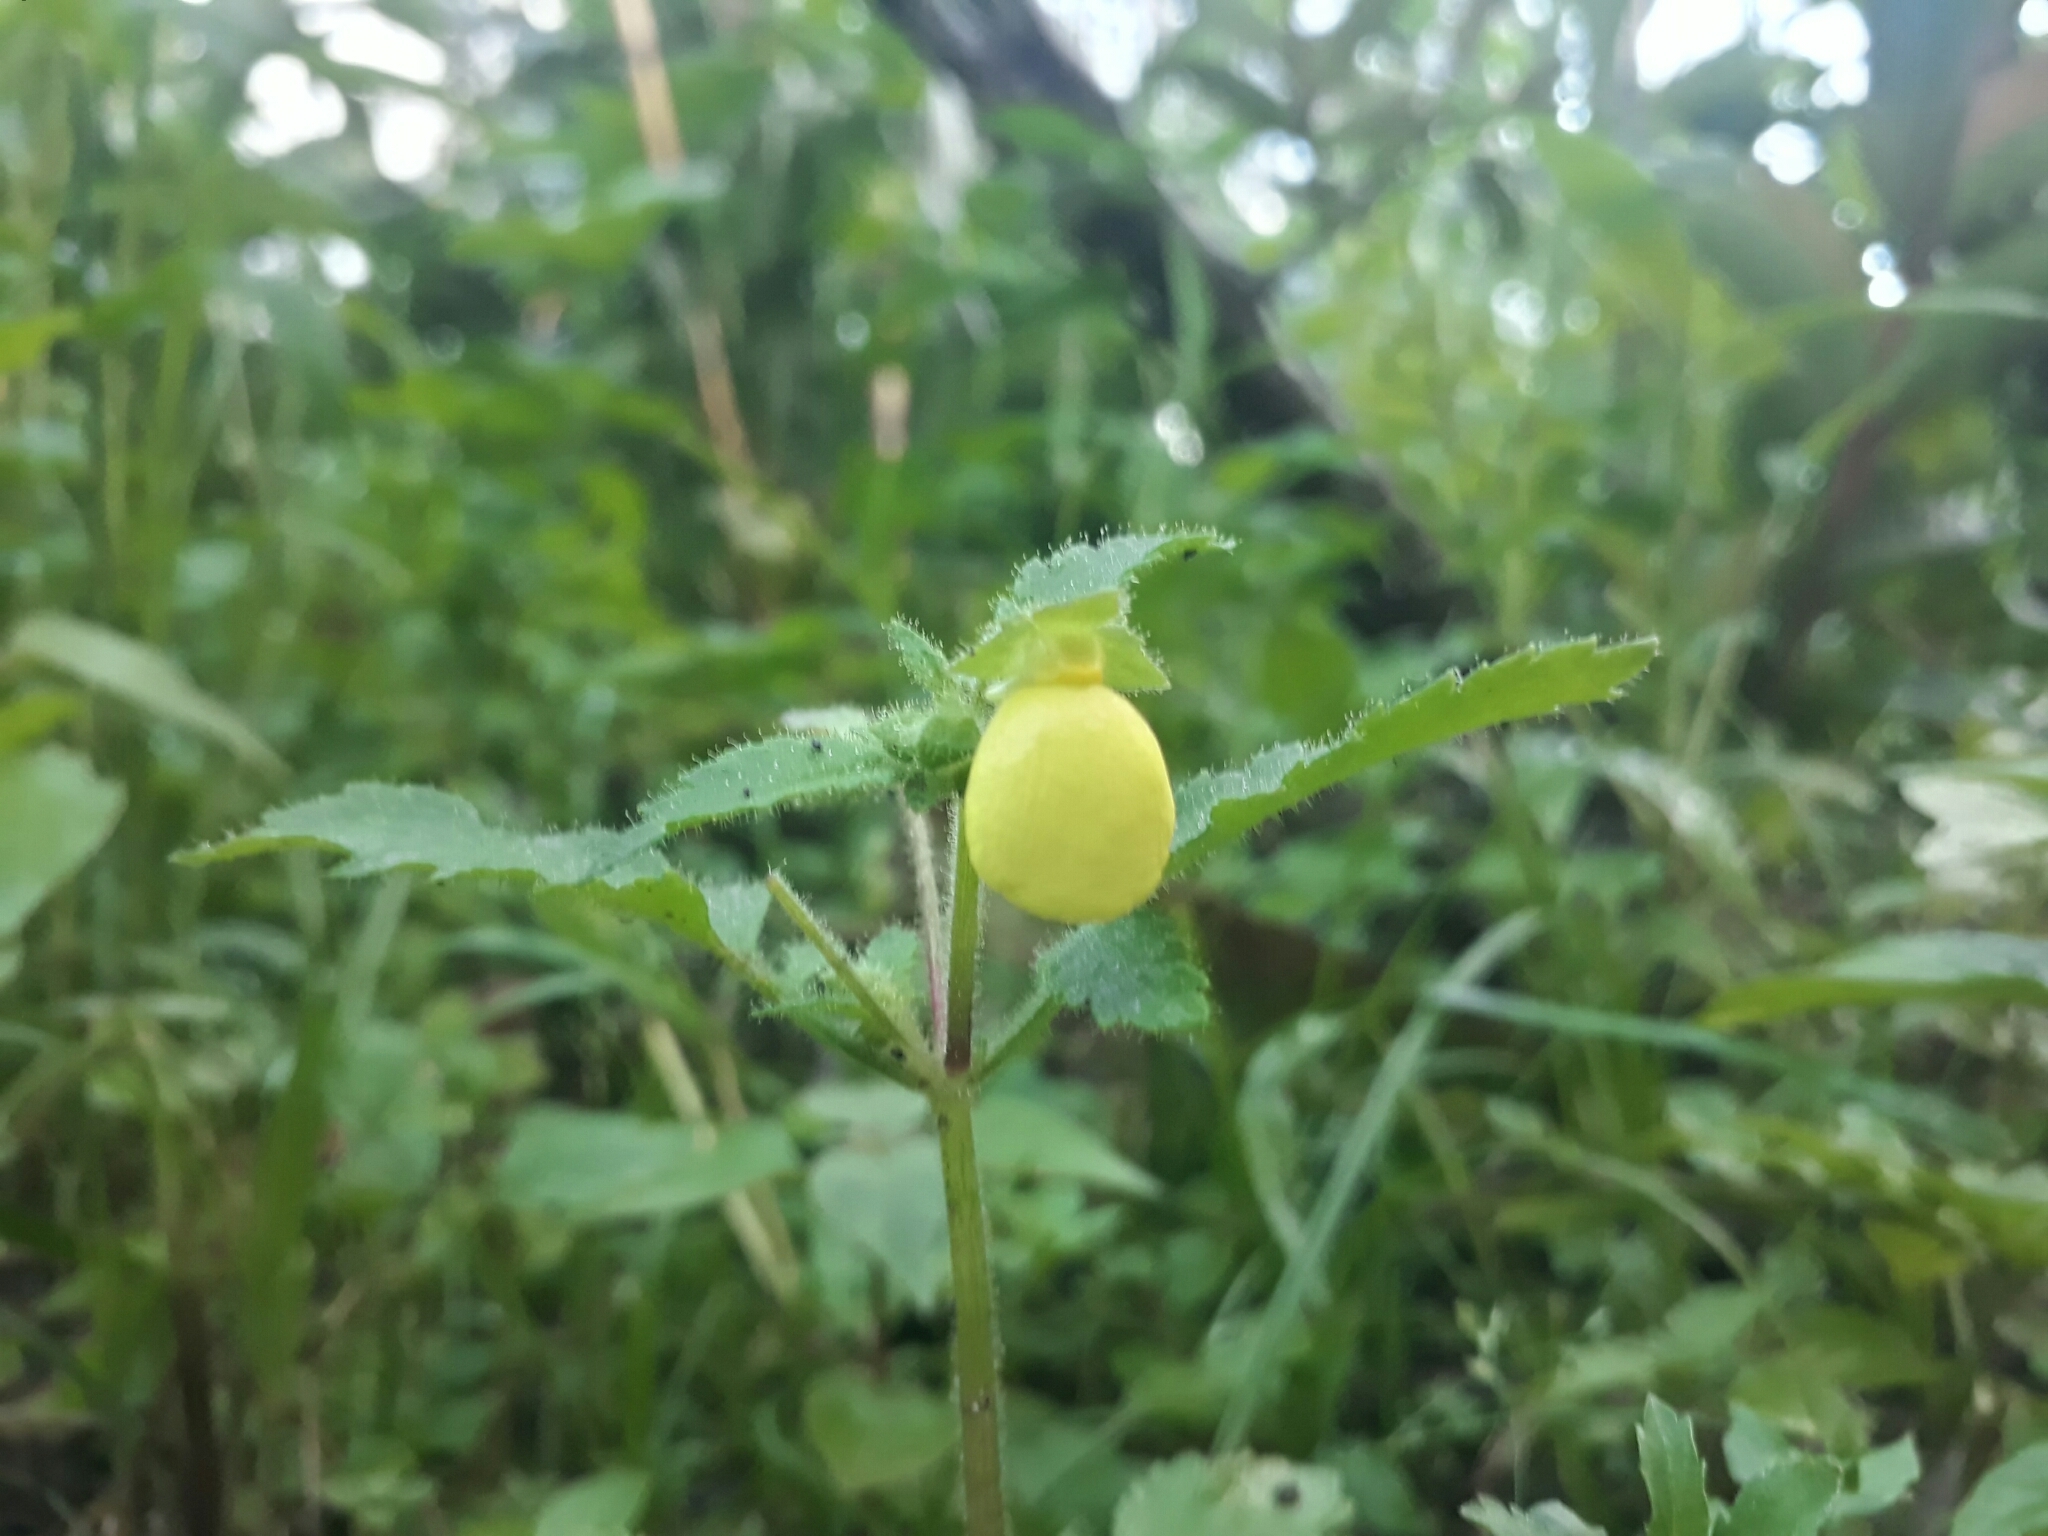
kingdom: Plantae
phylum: Tracheophyta
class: Magnoliopsida
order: Lamiales
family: Calceolariaceae
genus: Calceolaria
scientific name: Calceolaria tripartita
